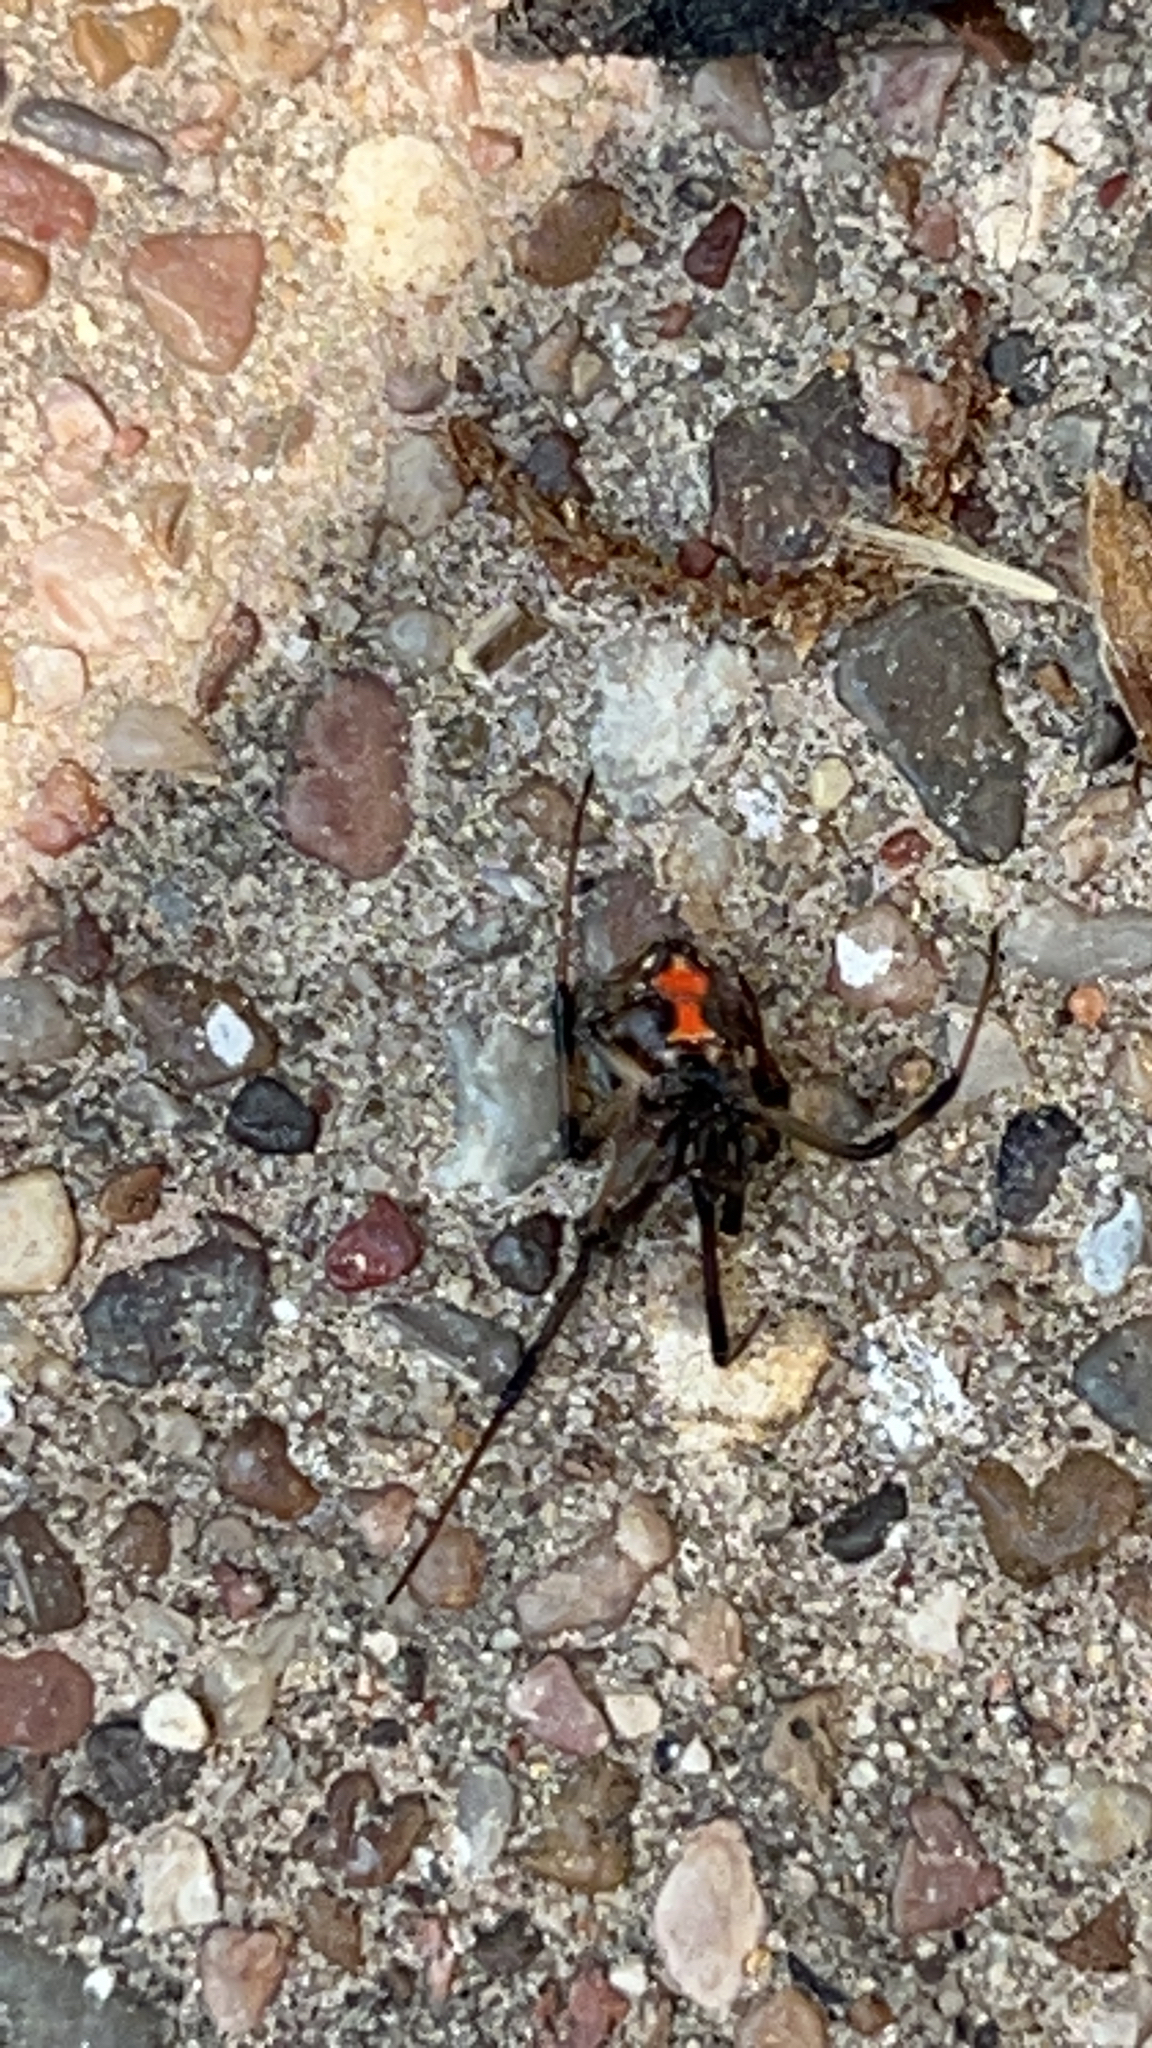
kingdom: Animalia
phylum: Arthropoda
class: Arachnida
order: Araneae
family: Theridiidae
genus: Latrodectus
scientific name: Latrodectus geometricus
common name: Brown widow spider
